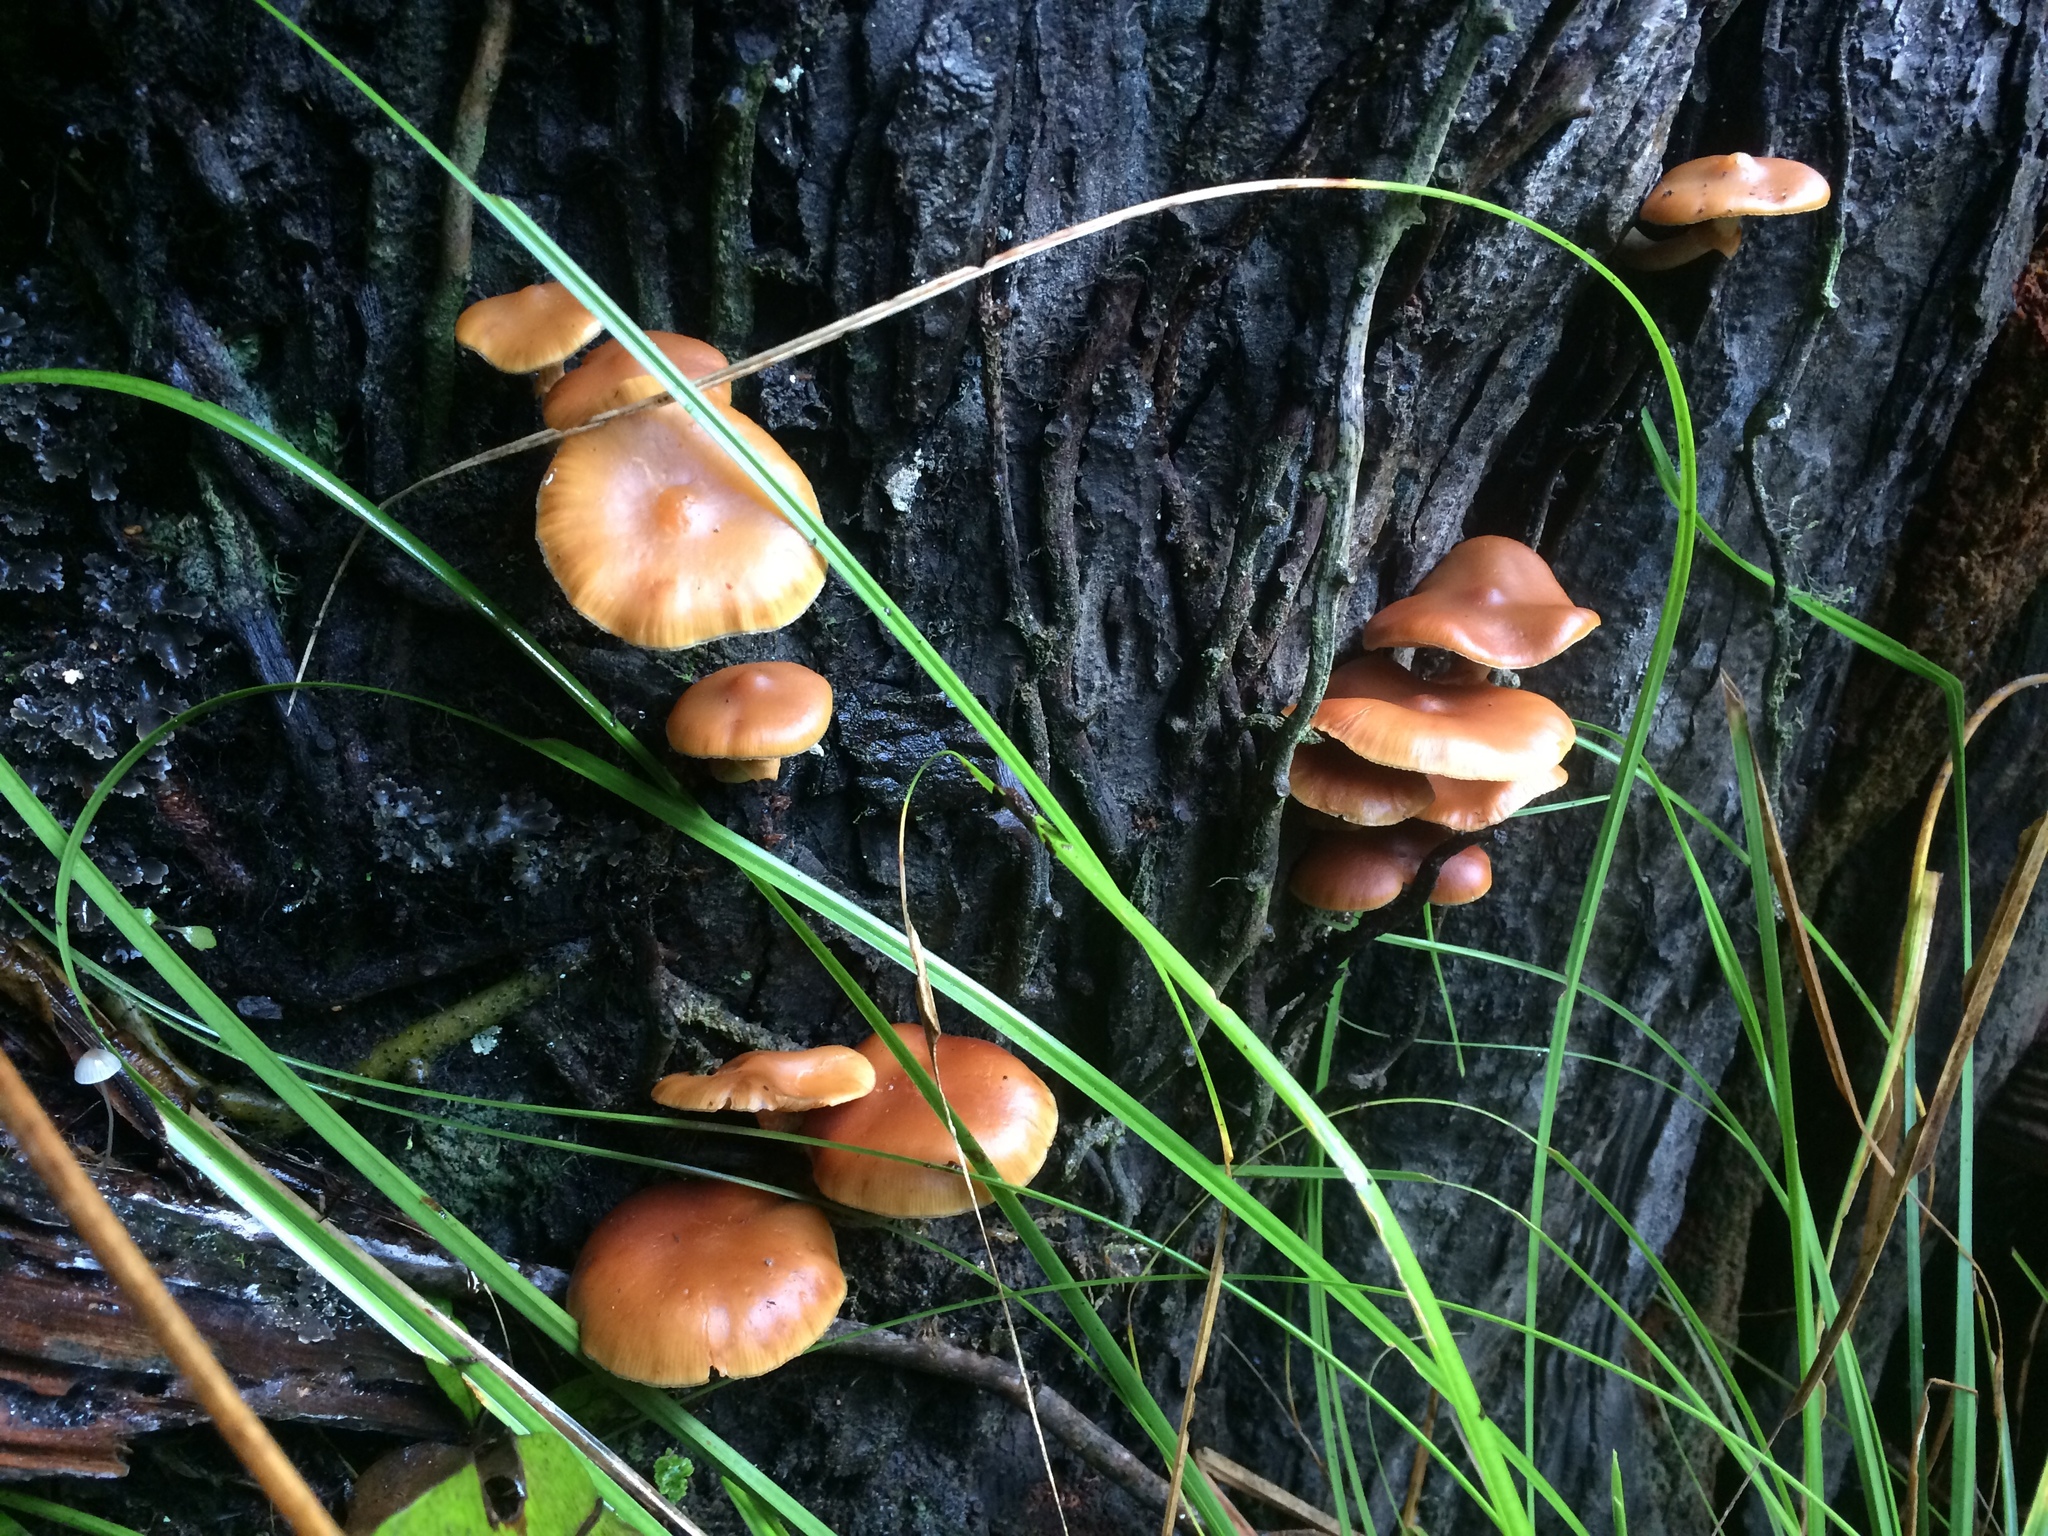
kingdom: Fungi
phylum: Basidiomycota
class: Agaricomycetes
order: Agaricales
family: Hymenogastraceae
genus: Galerina
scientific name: Galerina patagonica
